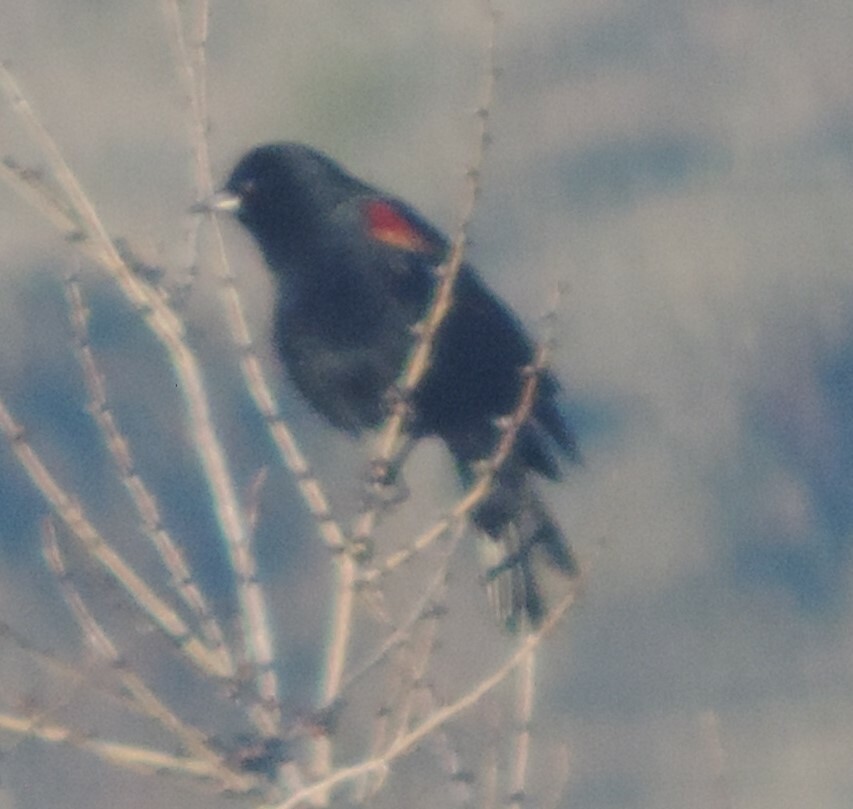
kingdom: Animalia
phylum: Chordata
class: Aves
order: Passeriformes
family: Icteridae
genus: Agelaius
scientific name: Agelaius phoeniceus
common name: Red-winged blackbird
